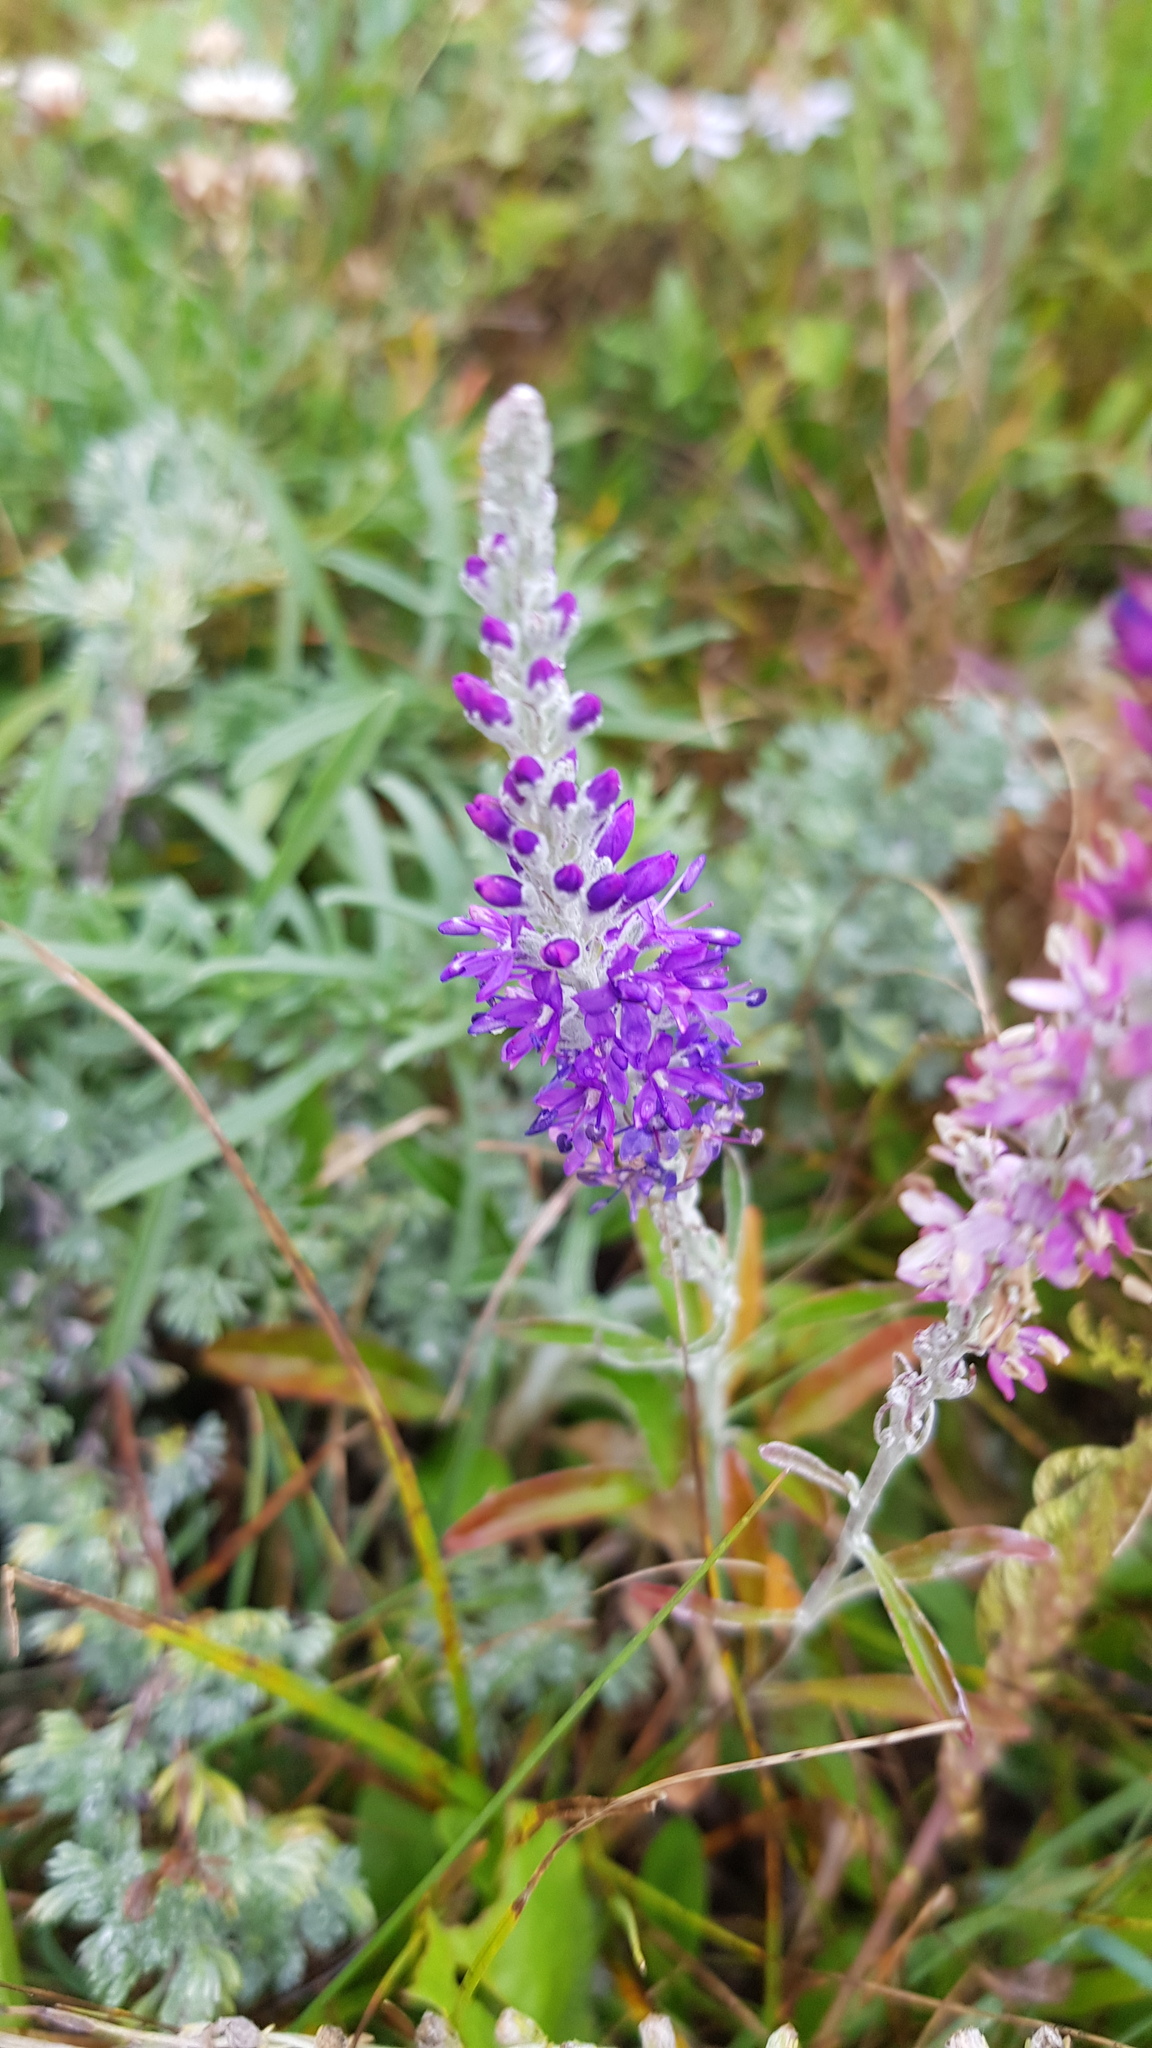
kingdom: Plantae
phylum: Tracheophyta
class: Magnoliopsida
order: Lamiales
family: Plantaginaceae
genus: Veronica
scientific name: Veronica incana
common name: Silver speedwell
